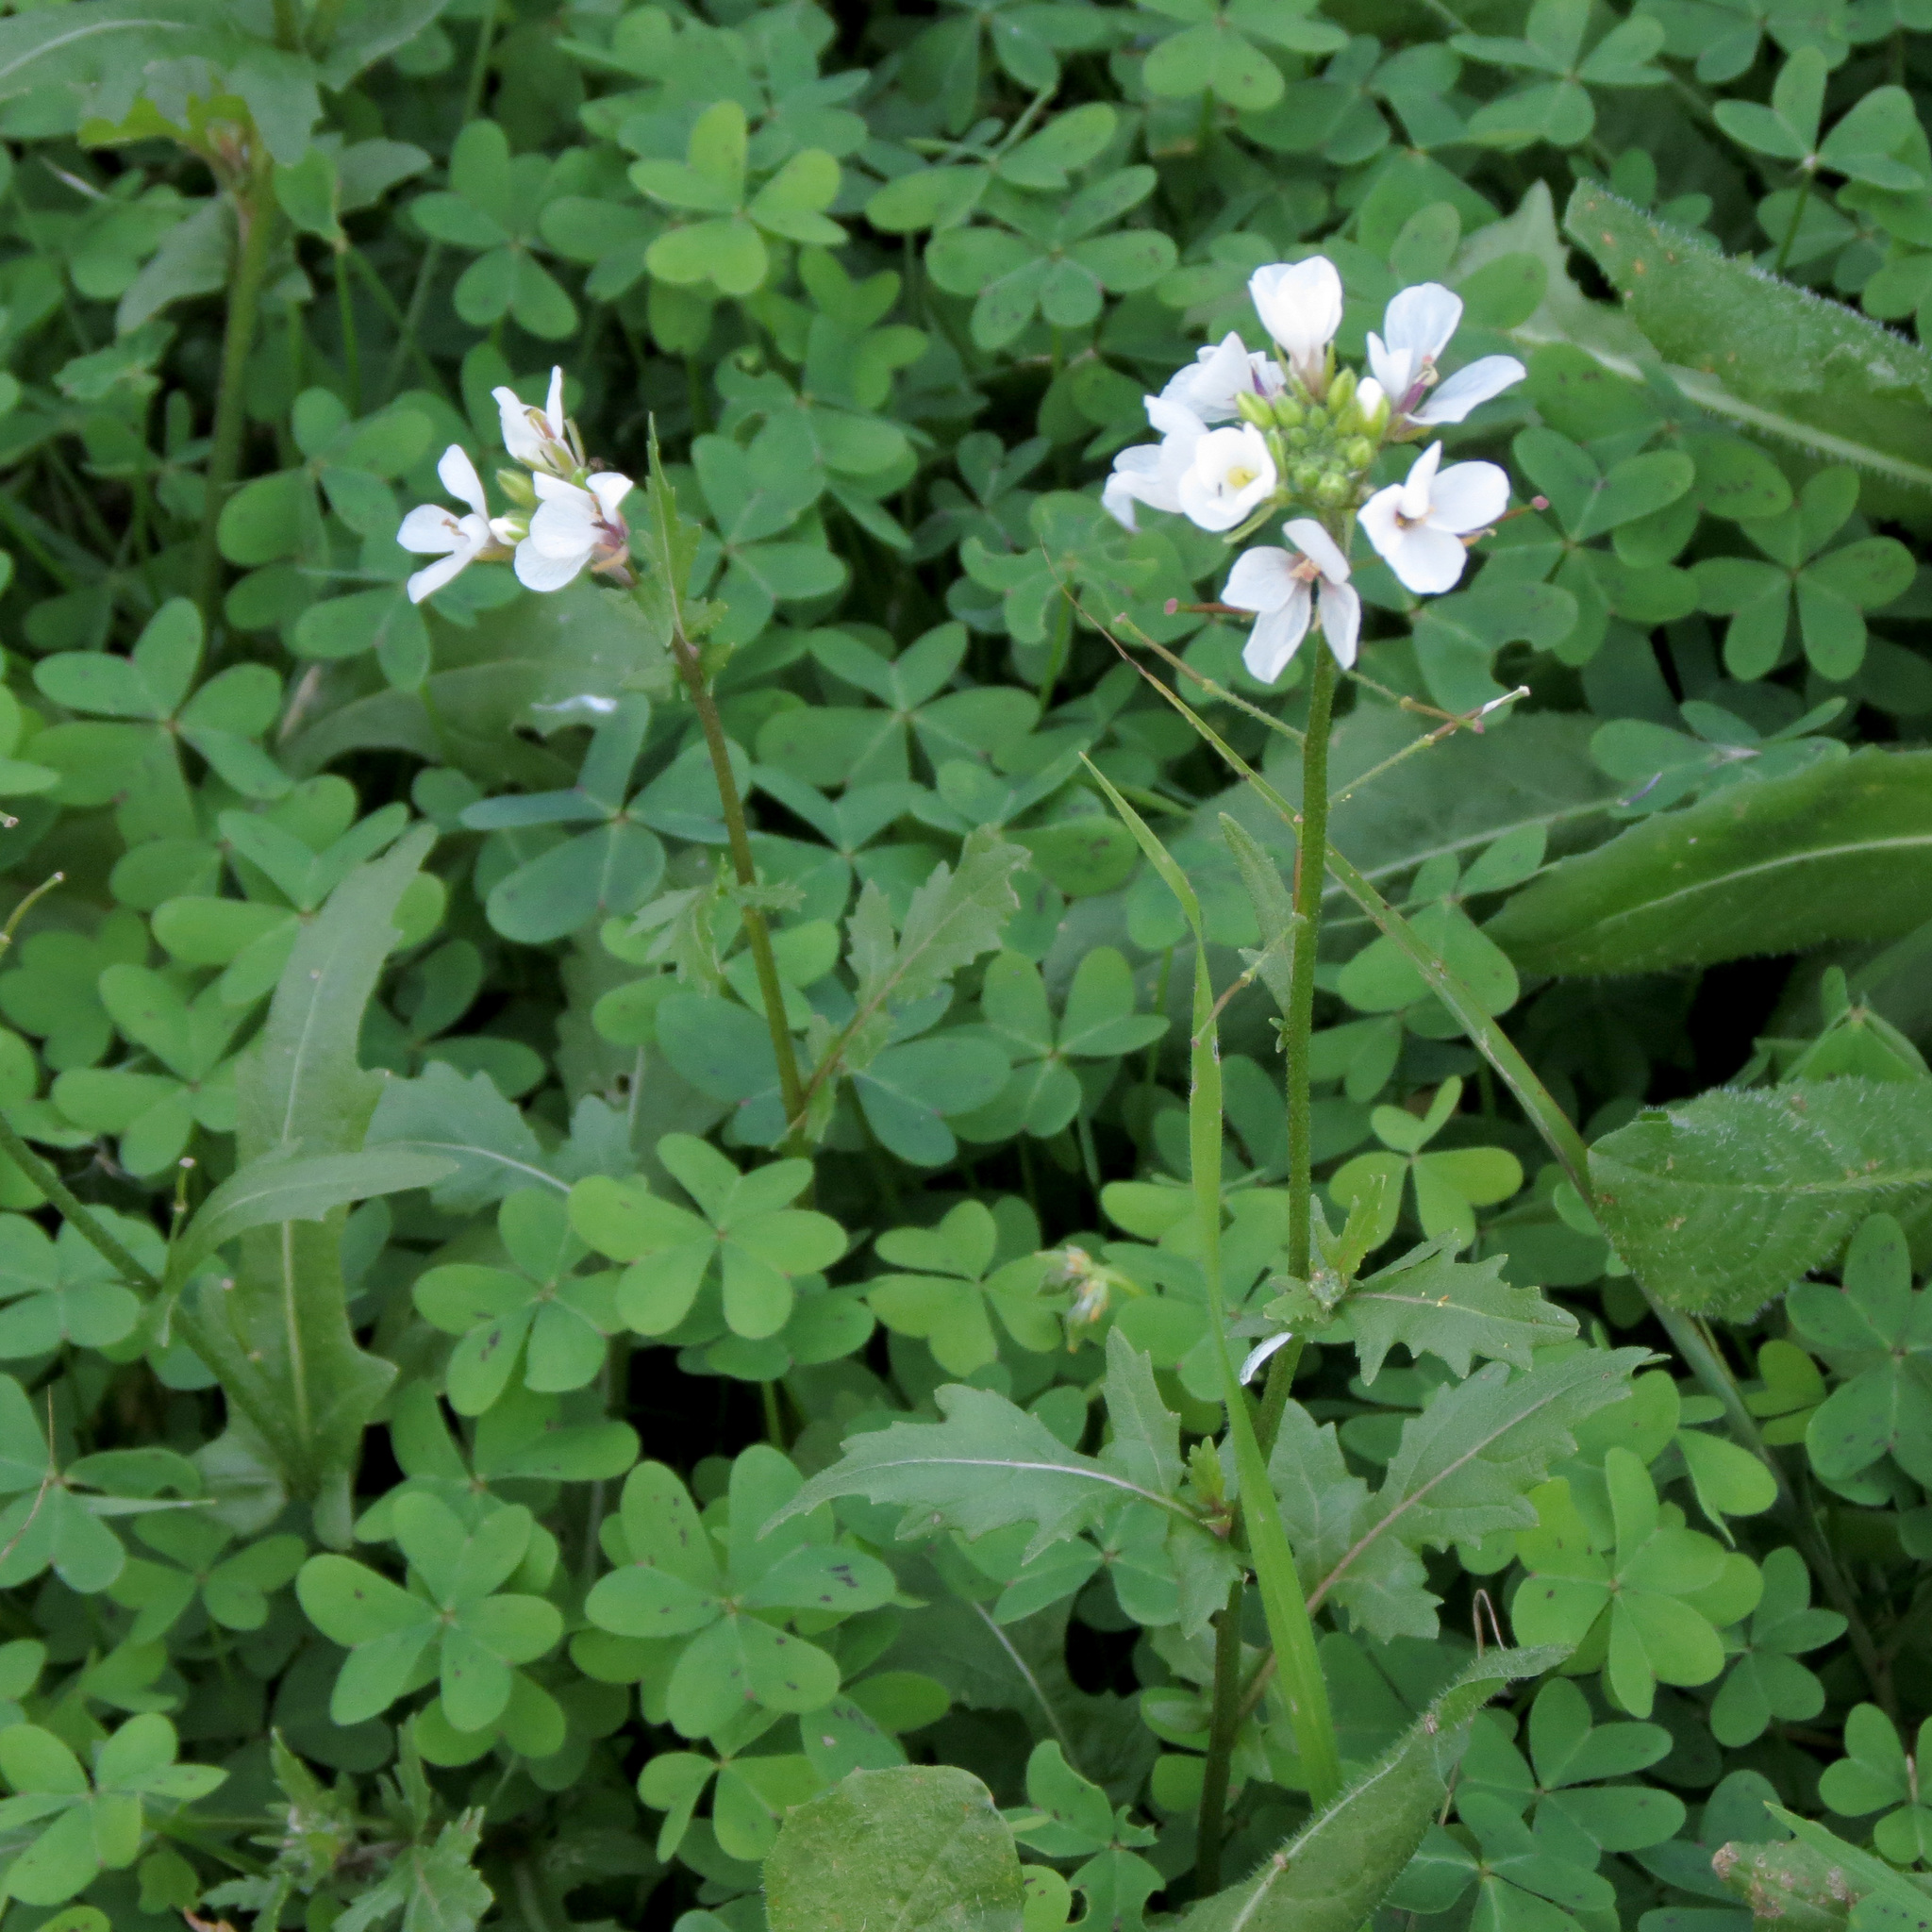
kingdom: Plantae
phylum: Tracheophyta
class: Magnoliopsida
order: Brassicales
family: Brassicaceae
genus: Diplotaxis
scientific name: Diplotaxis erucoides
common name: White rocket
